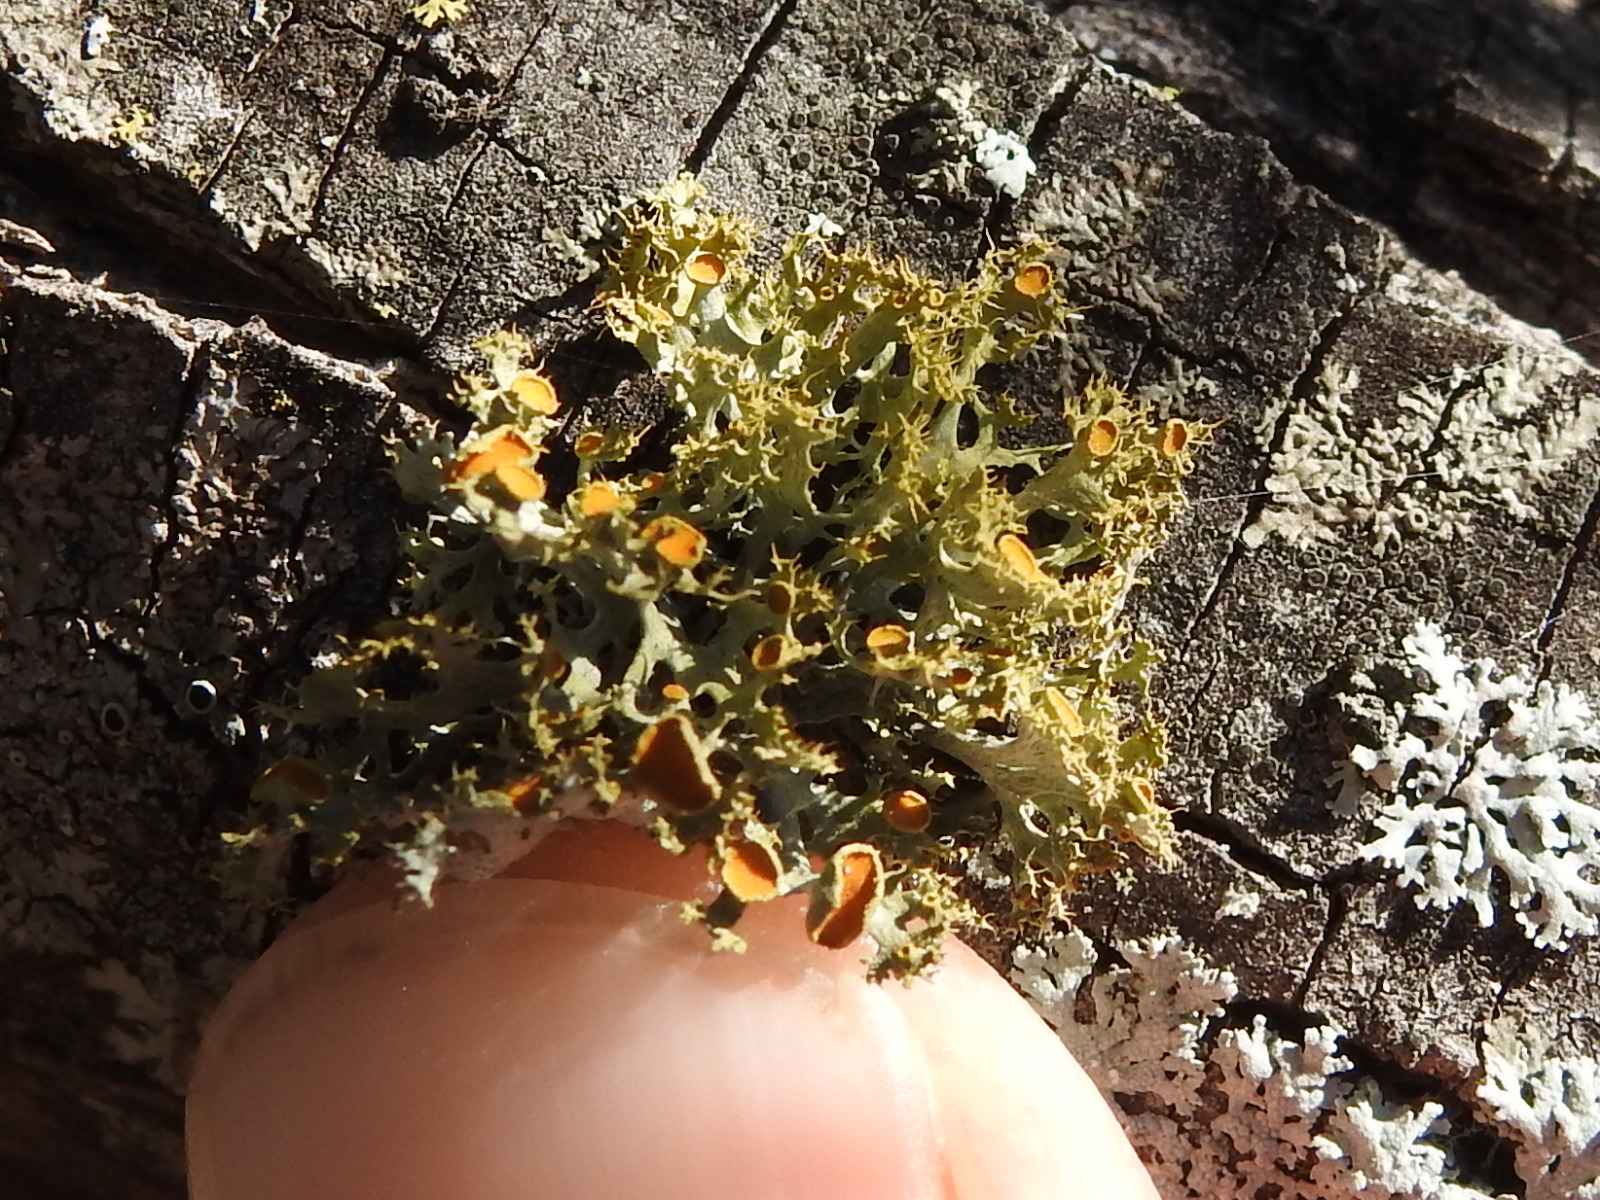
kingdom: Fungi
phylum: Ascomycota
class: Lecanoromycetes
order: Teloschistales
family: Teloschistaceae
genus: Niorma
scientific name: Niorma chrysophthalma
